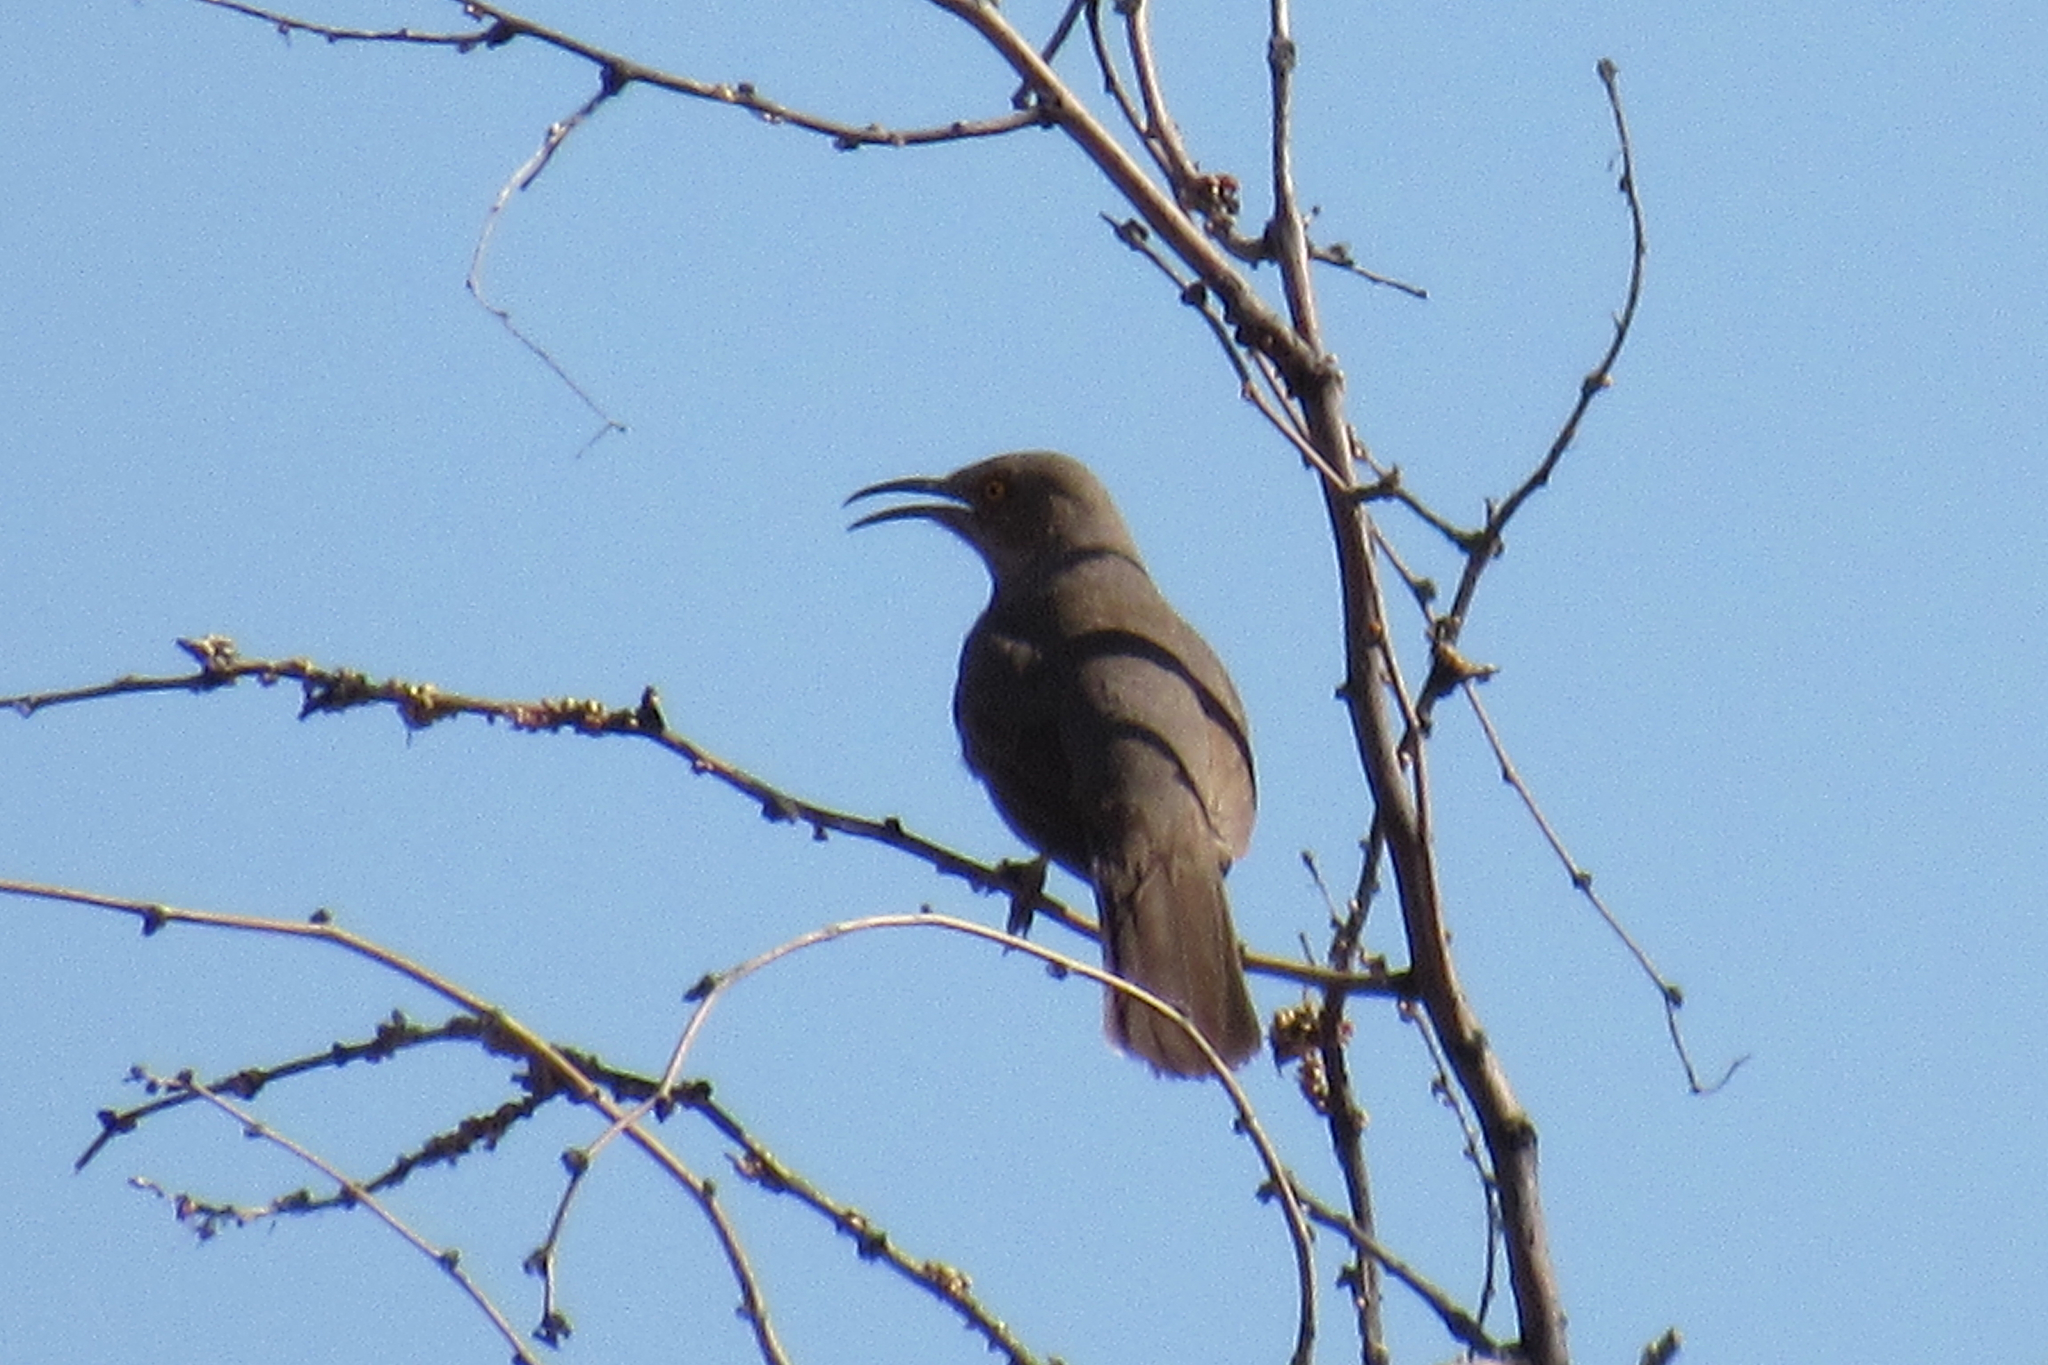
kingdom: Animalia
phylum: Chordata
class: Aves
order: Passeriformes
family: Mimidae
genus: Toxostoma
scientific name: Toxostoma curvirostre
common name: Curve-billed thrasher
